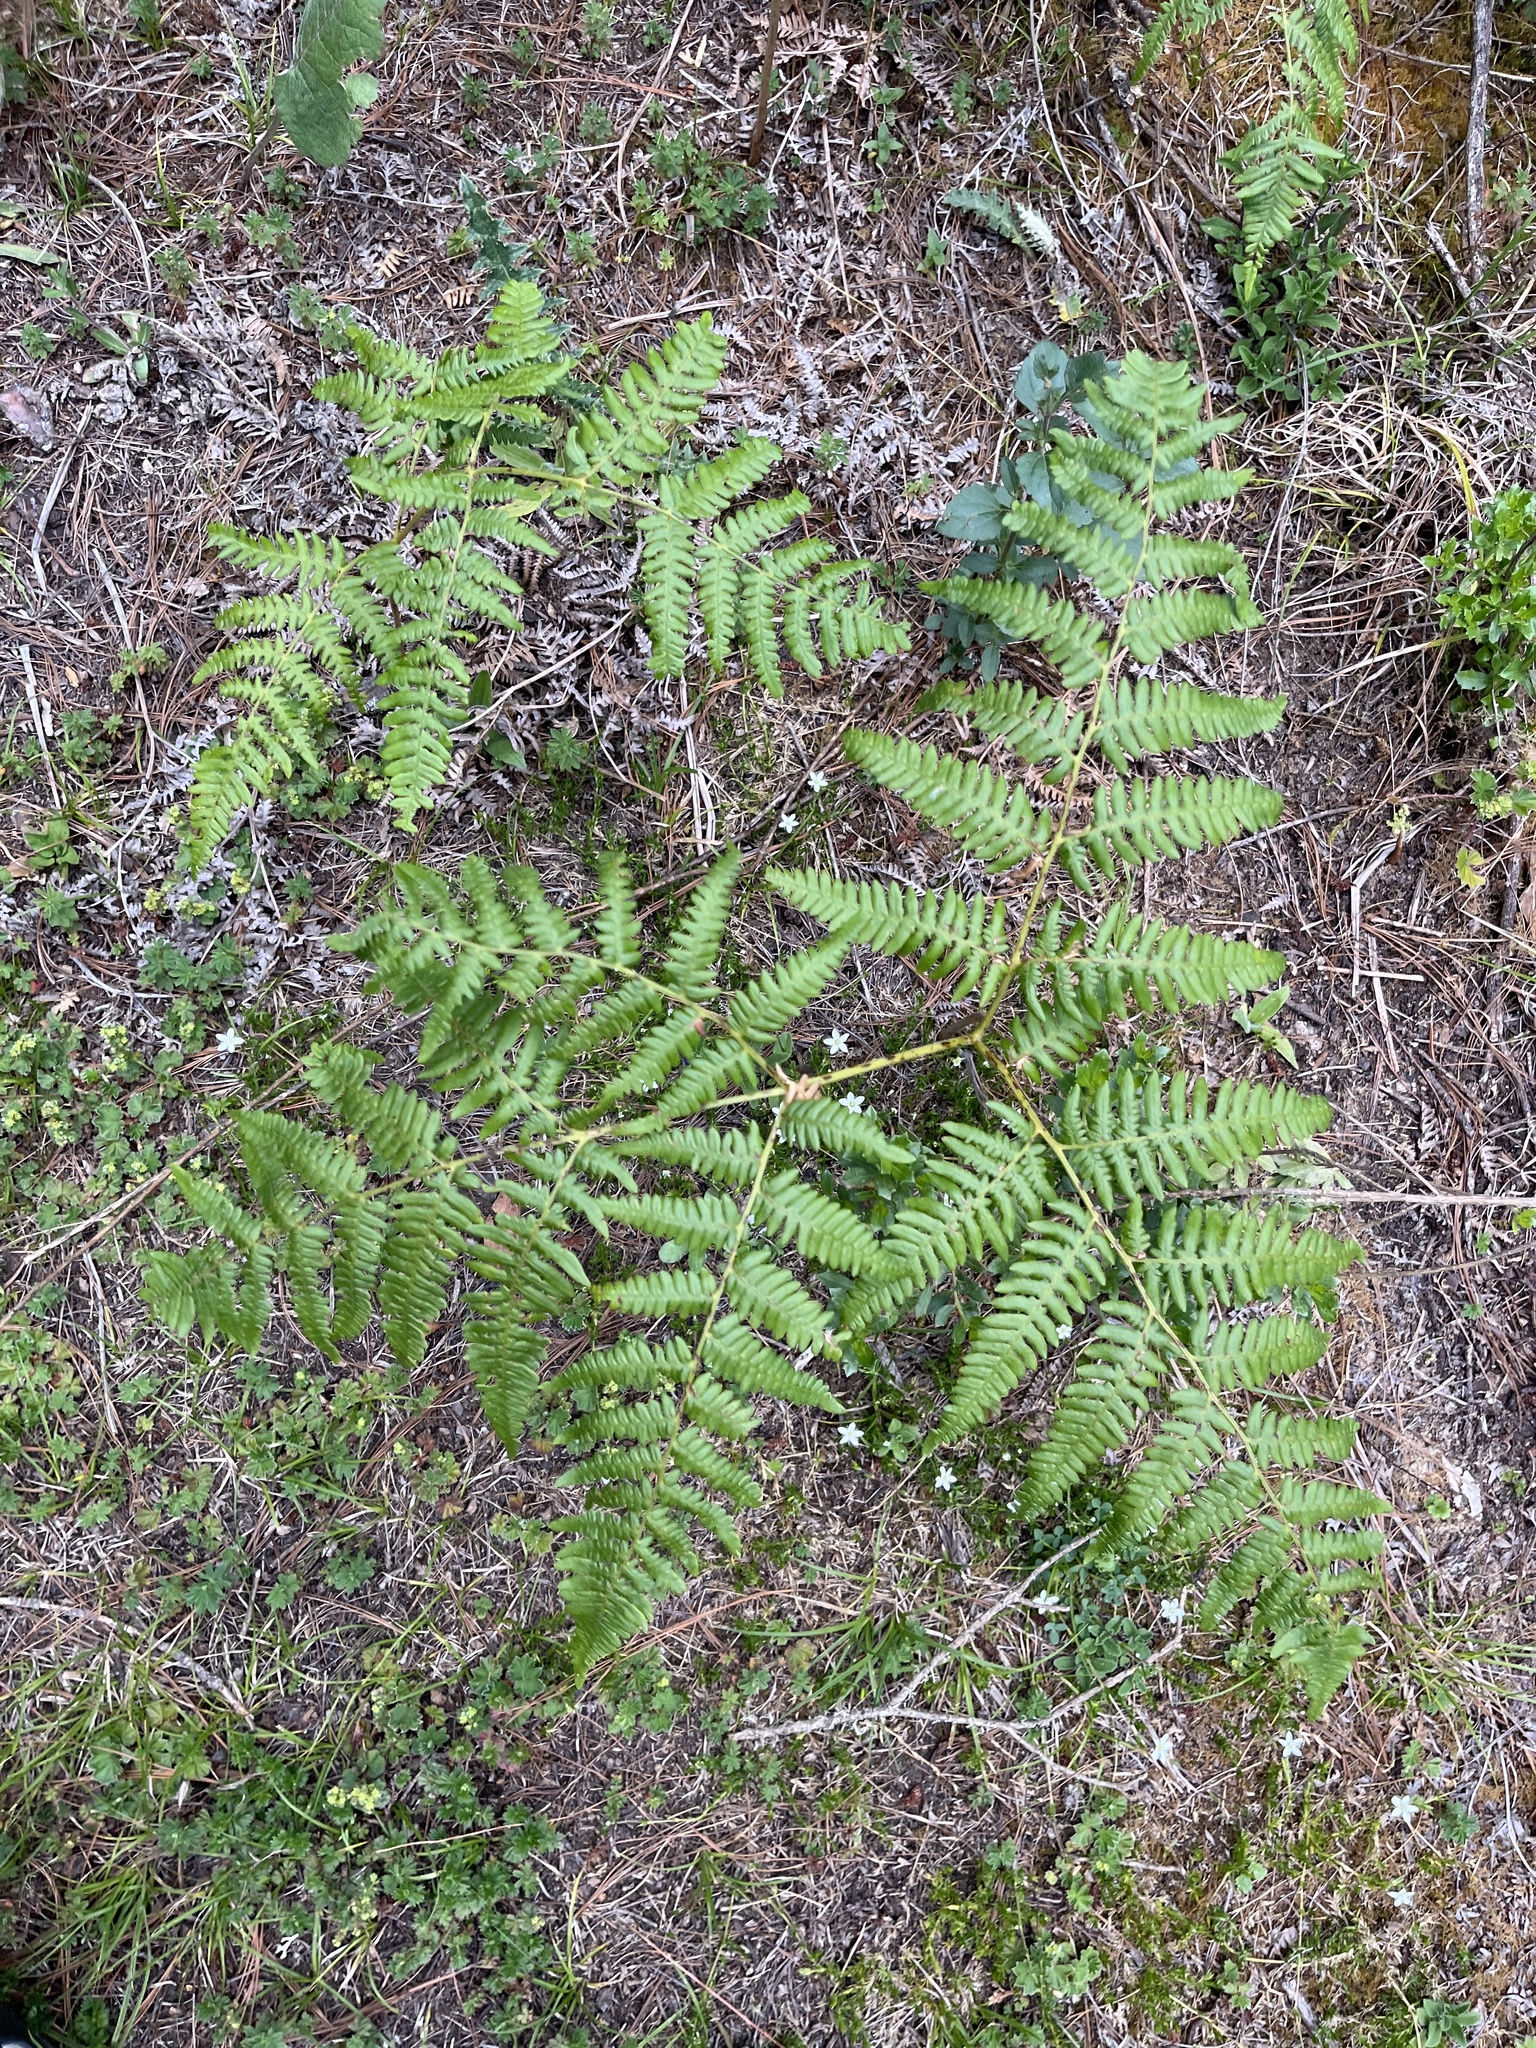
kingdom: Plantae
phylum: Tracheophyta
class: Polypodiopsida
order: Polypodiales
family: Dennstaedtiaceae
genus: Pteridium
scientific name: Pteridium aquilinum
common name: Bracken
